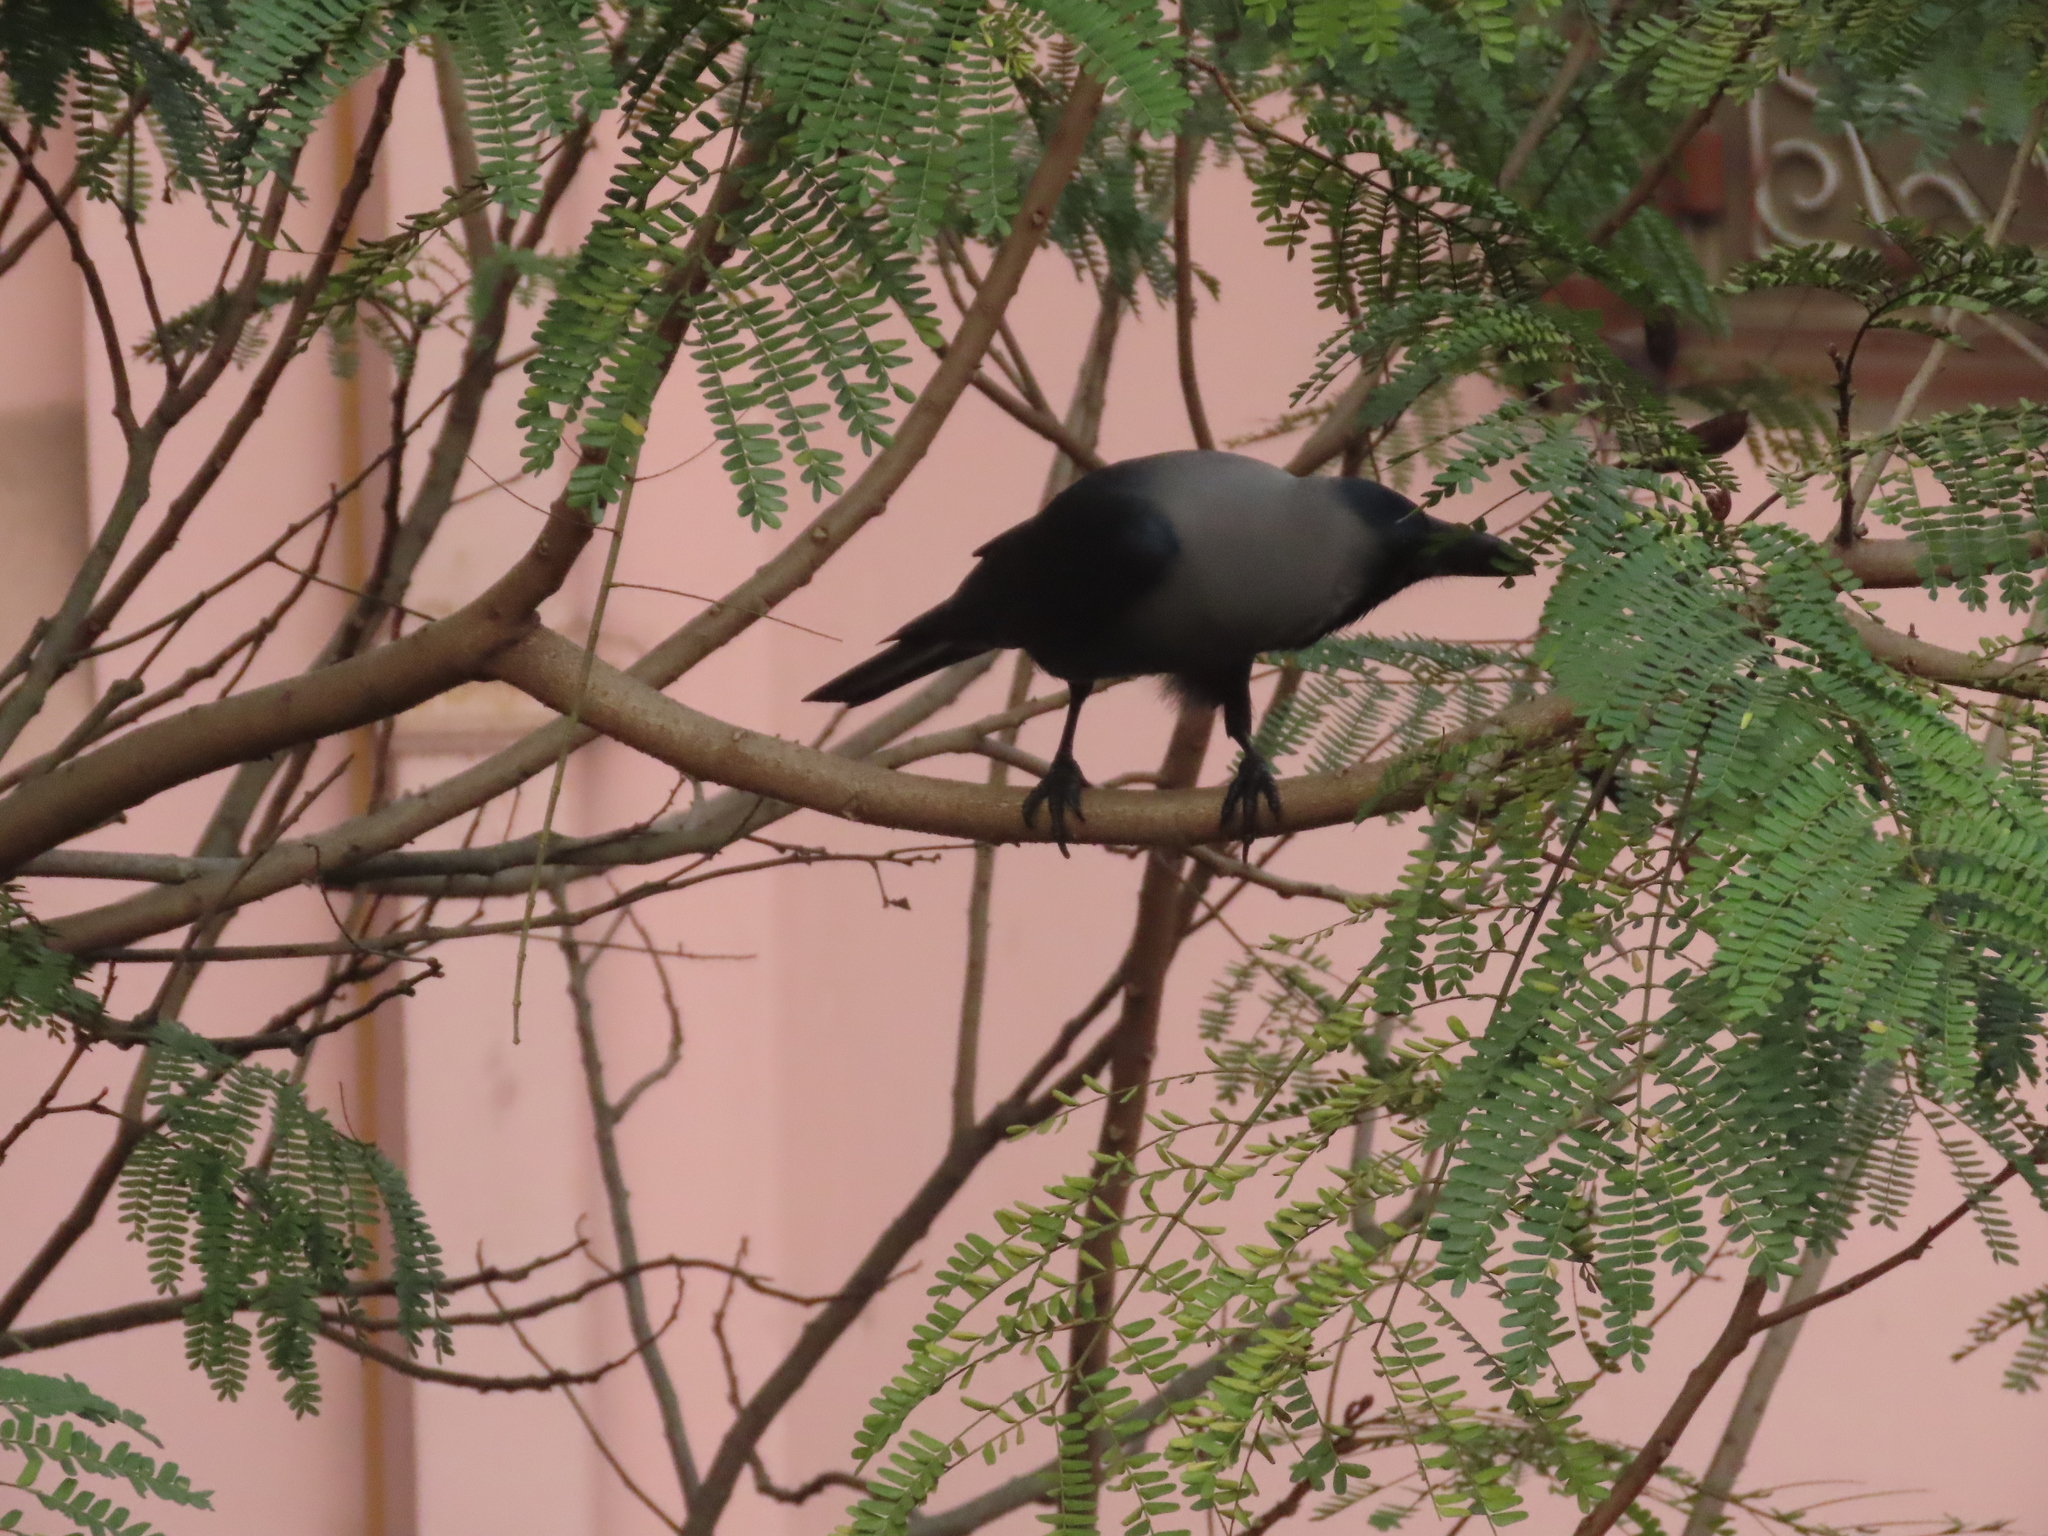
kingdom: Animalia
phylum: Chordata
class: Aves
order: Passeriformes
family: Corvidae
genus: Corvus
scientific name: Corvus splendens
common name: House crow
